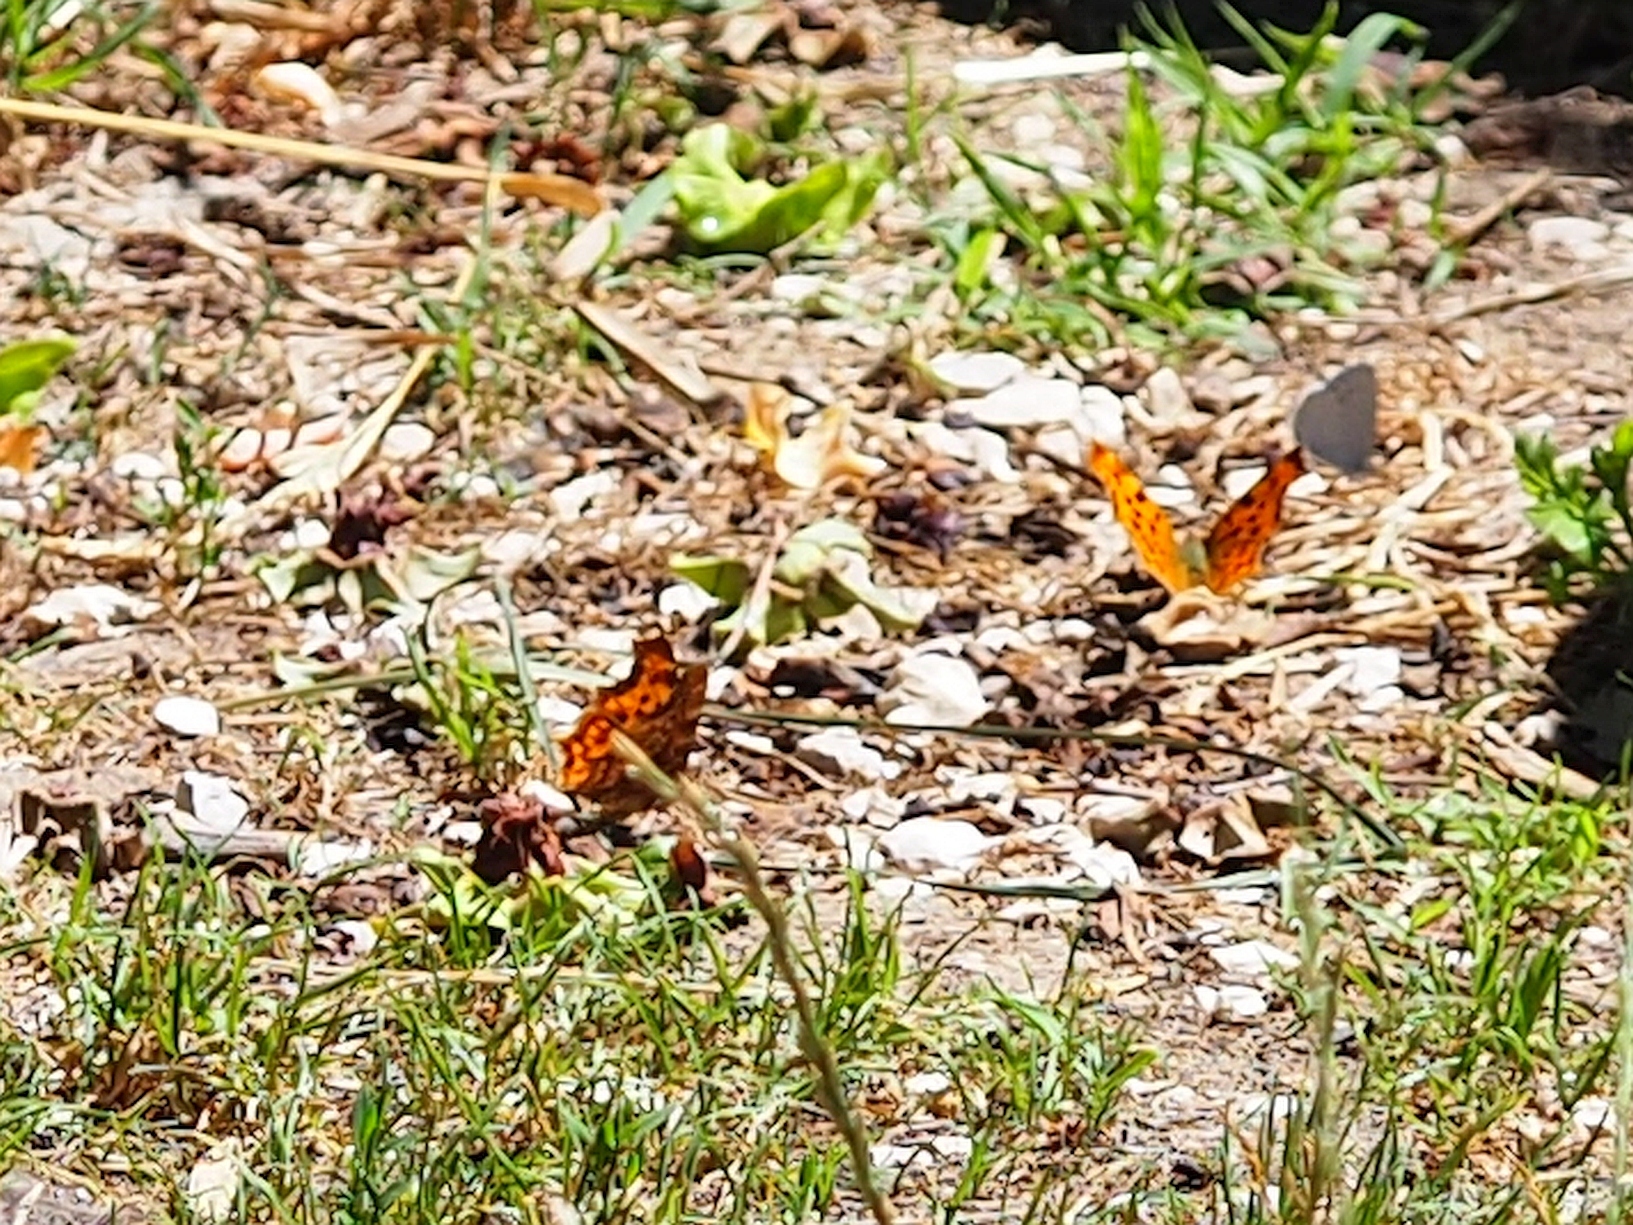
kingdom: Animalia
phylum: Arthropoda
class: Insecta
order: Lepidoptera
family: Nymphalidae
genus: Polygonia
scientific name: Polygonia c-album
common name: Comma
